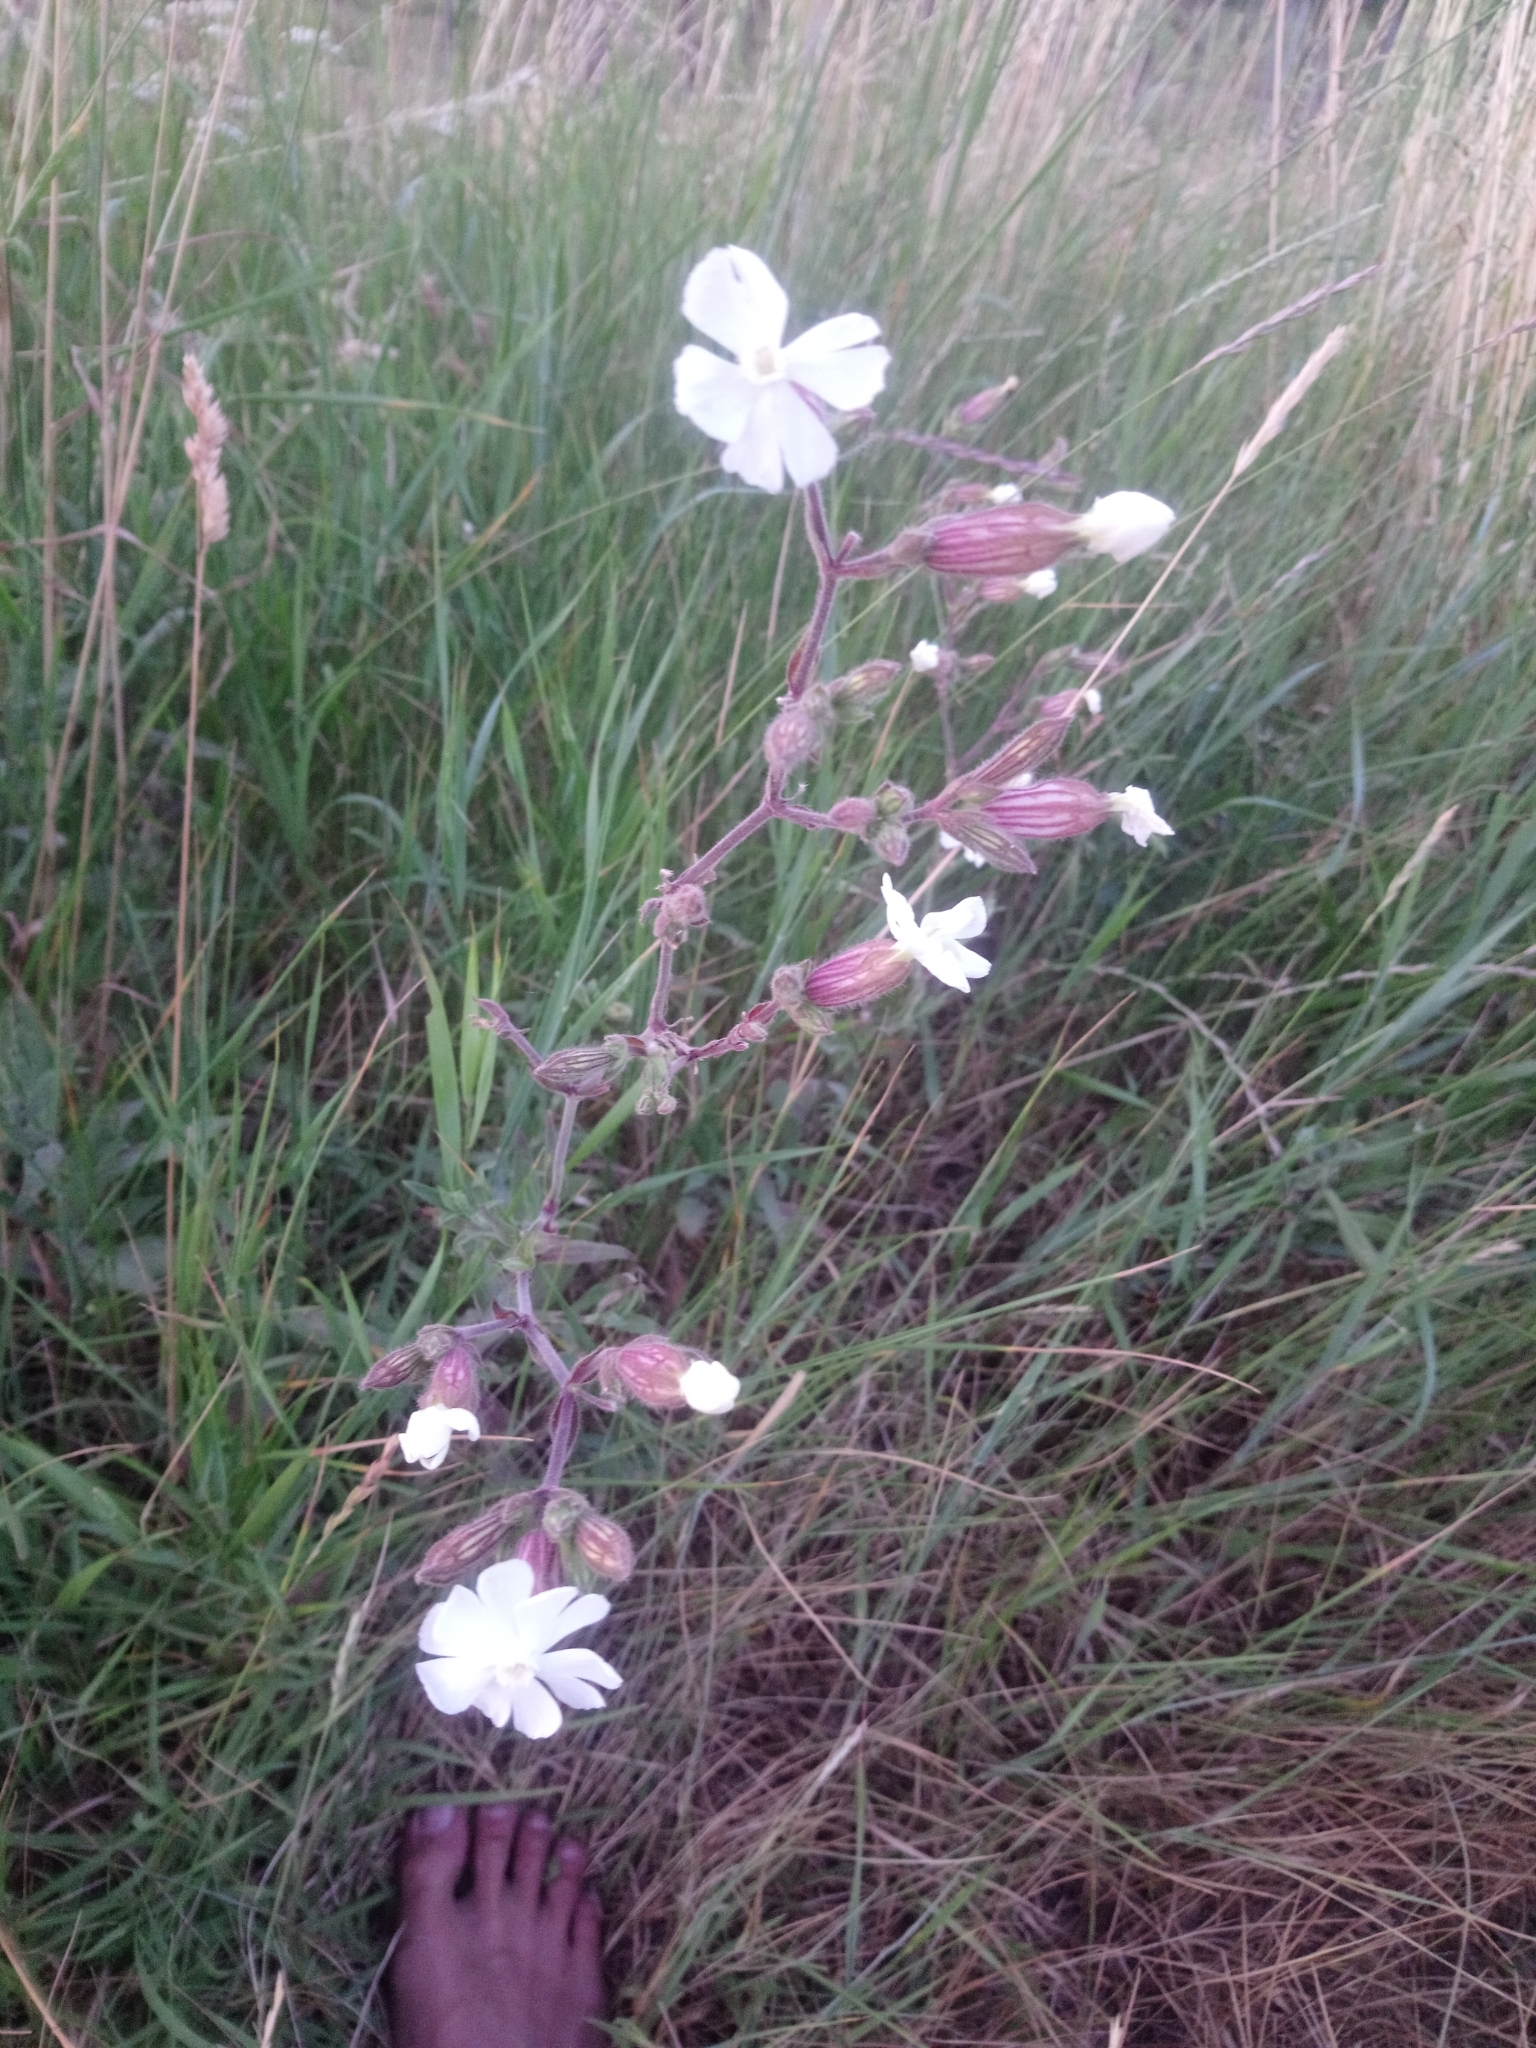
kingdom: Plantae
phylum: Tracheophyta
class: Magnoliopsida
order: Caryophyllales
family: Caryophyllaceae
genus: Silene
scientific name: Silene latifolia
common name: White campion
